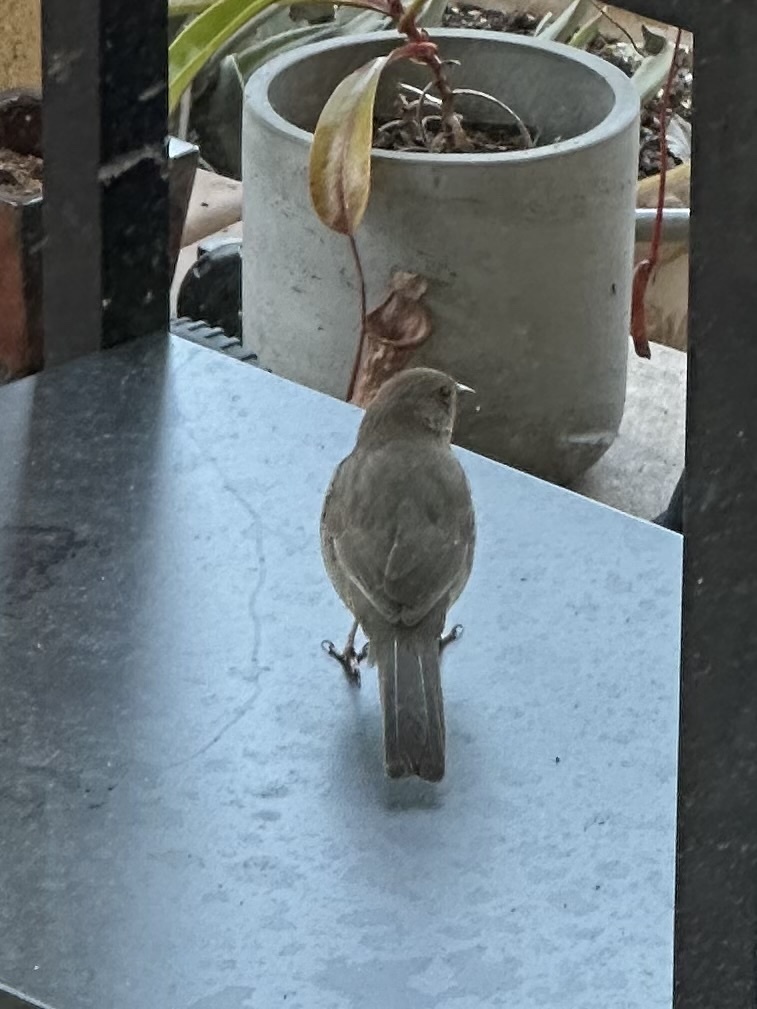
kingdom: Animalia
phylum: Chordata
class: Aves
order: Passeriformes
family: Passerellidae
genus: Melozone
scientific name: Melozone crissalis
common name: California towhee
